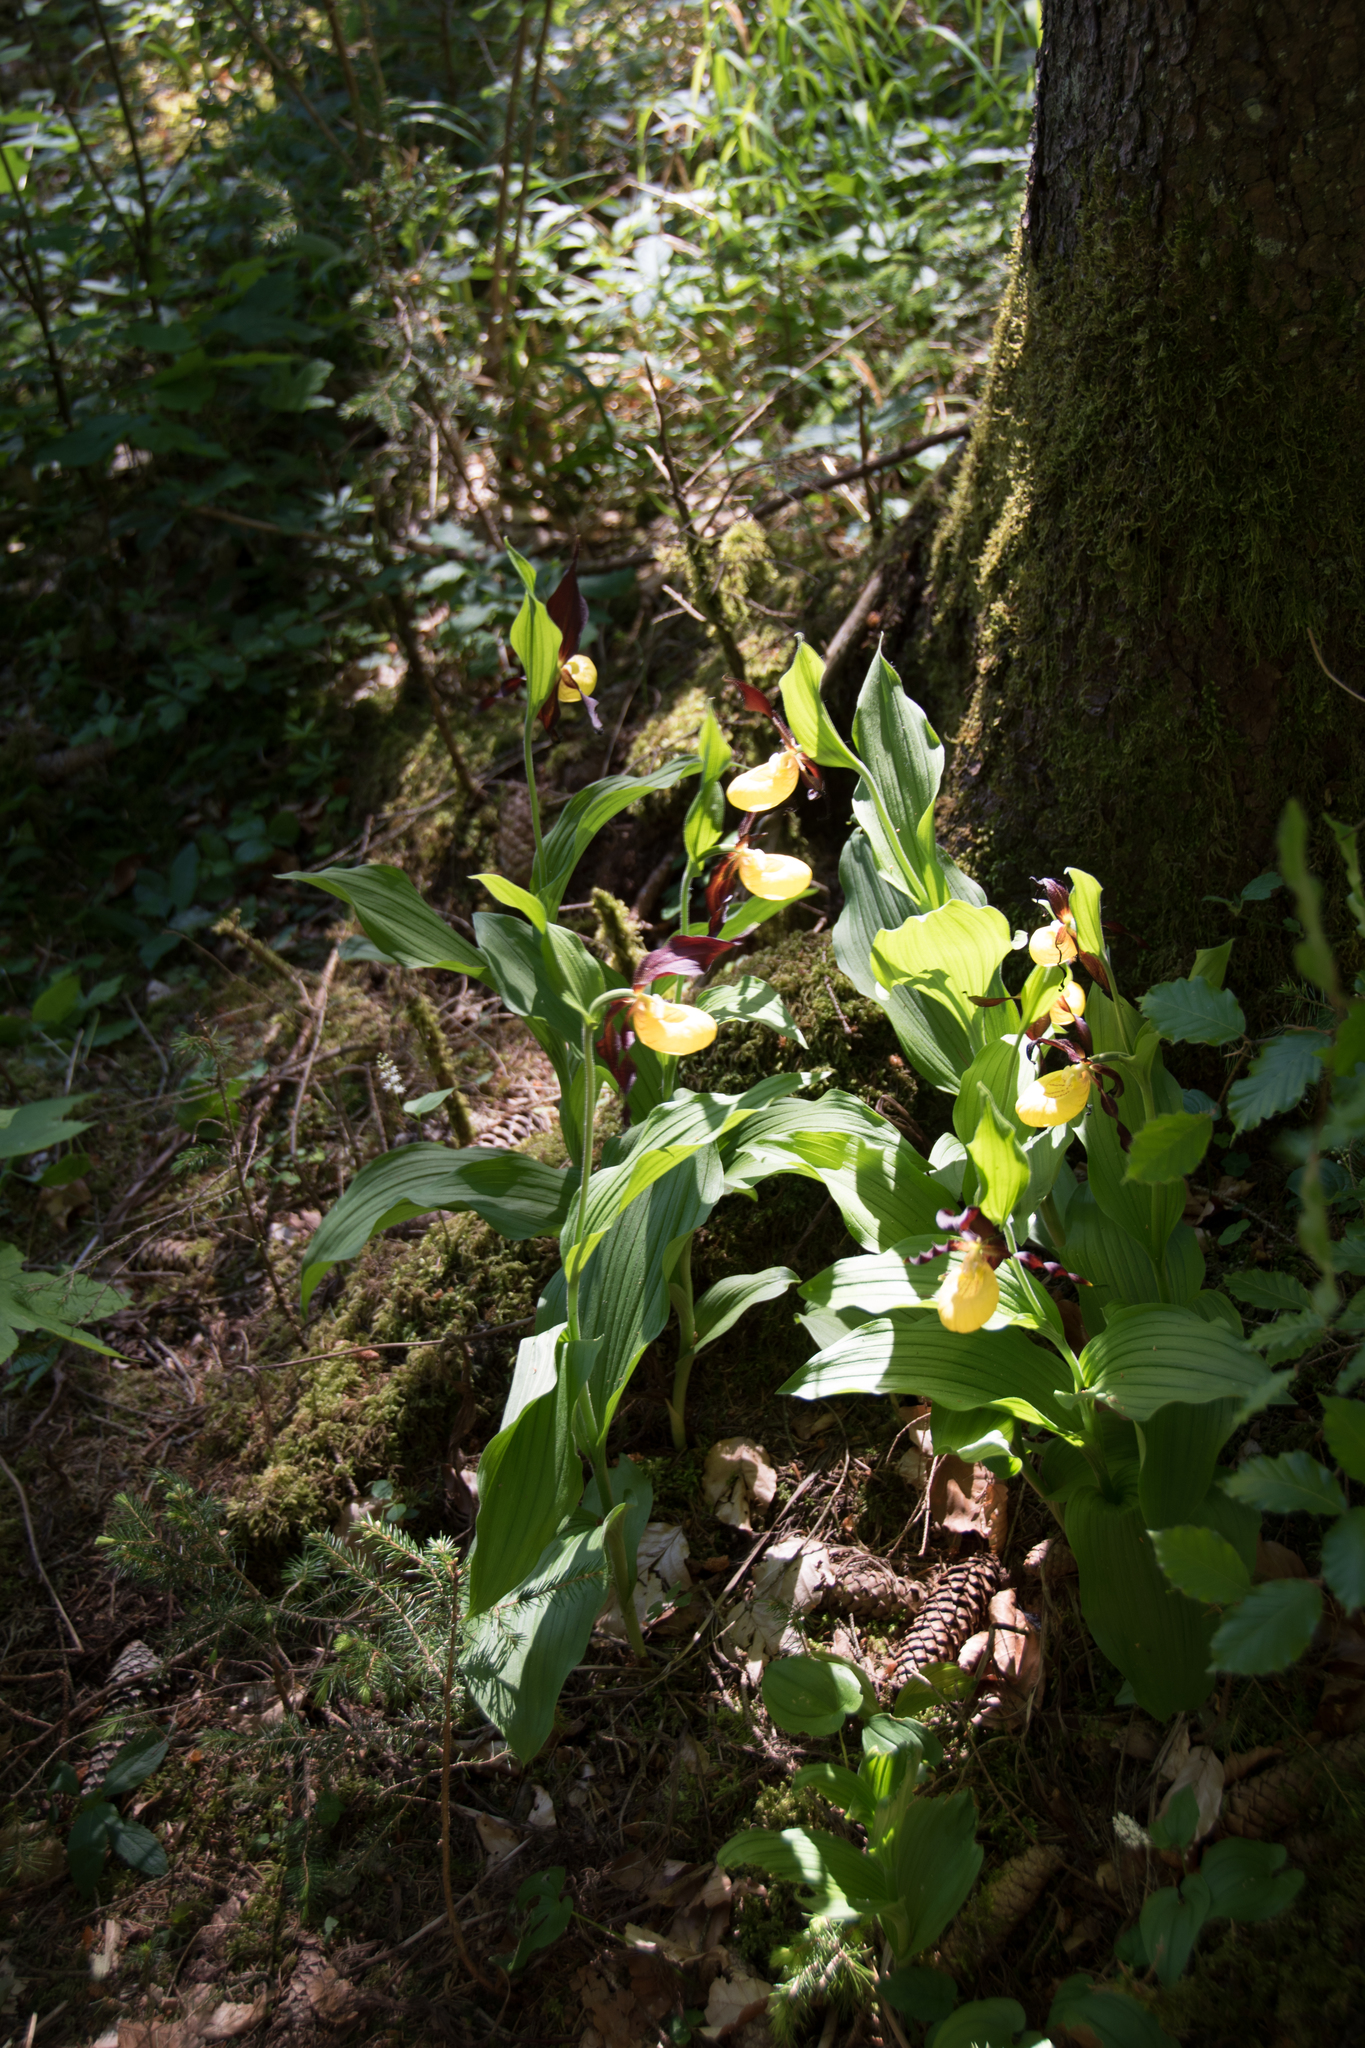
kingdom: Plantae
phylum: Tracheophyta
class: Liliopsida
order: Asparagales
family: Orchidaceae
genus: Cypripedium
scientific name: Cypripedium calceolus
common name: Lady's-slipper
